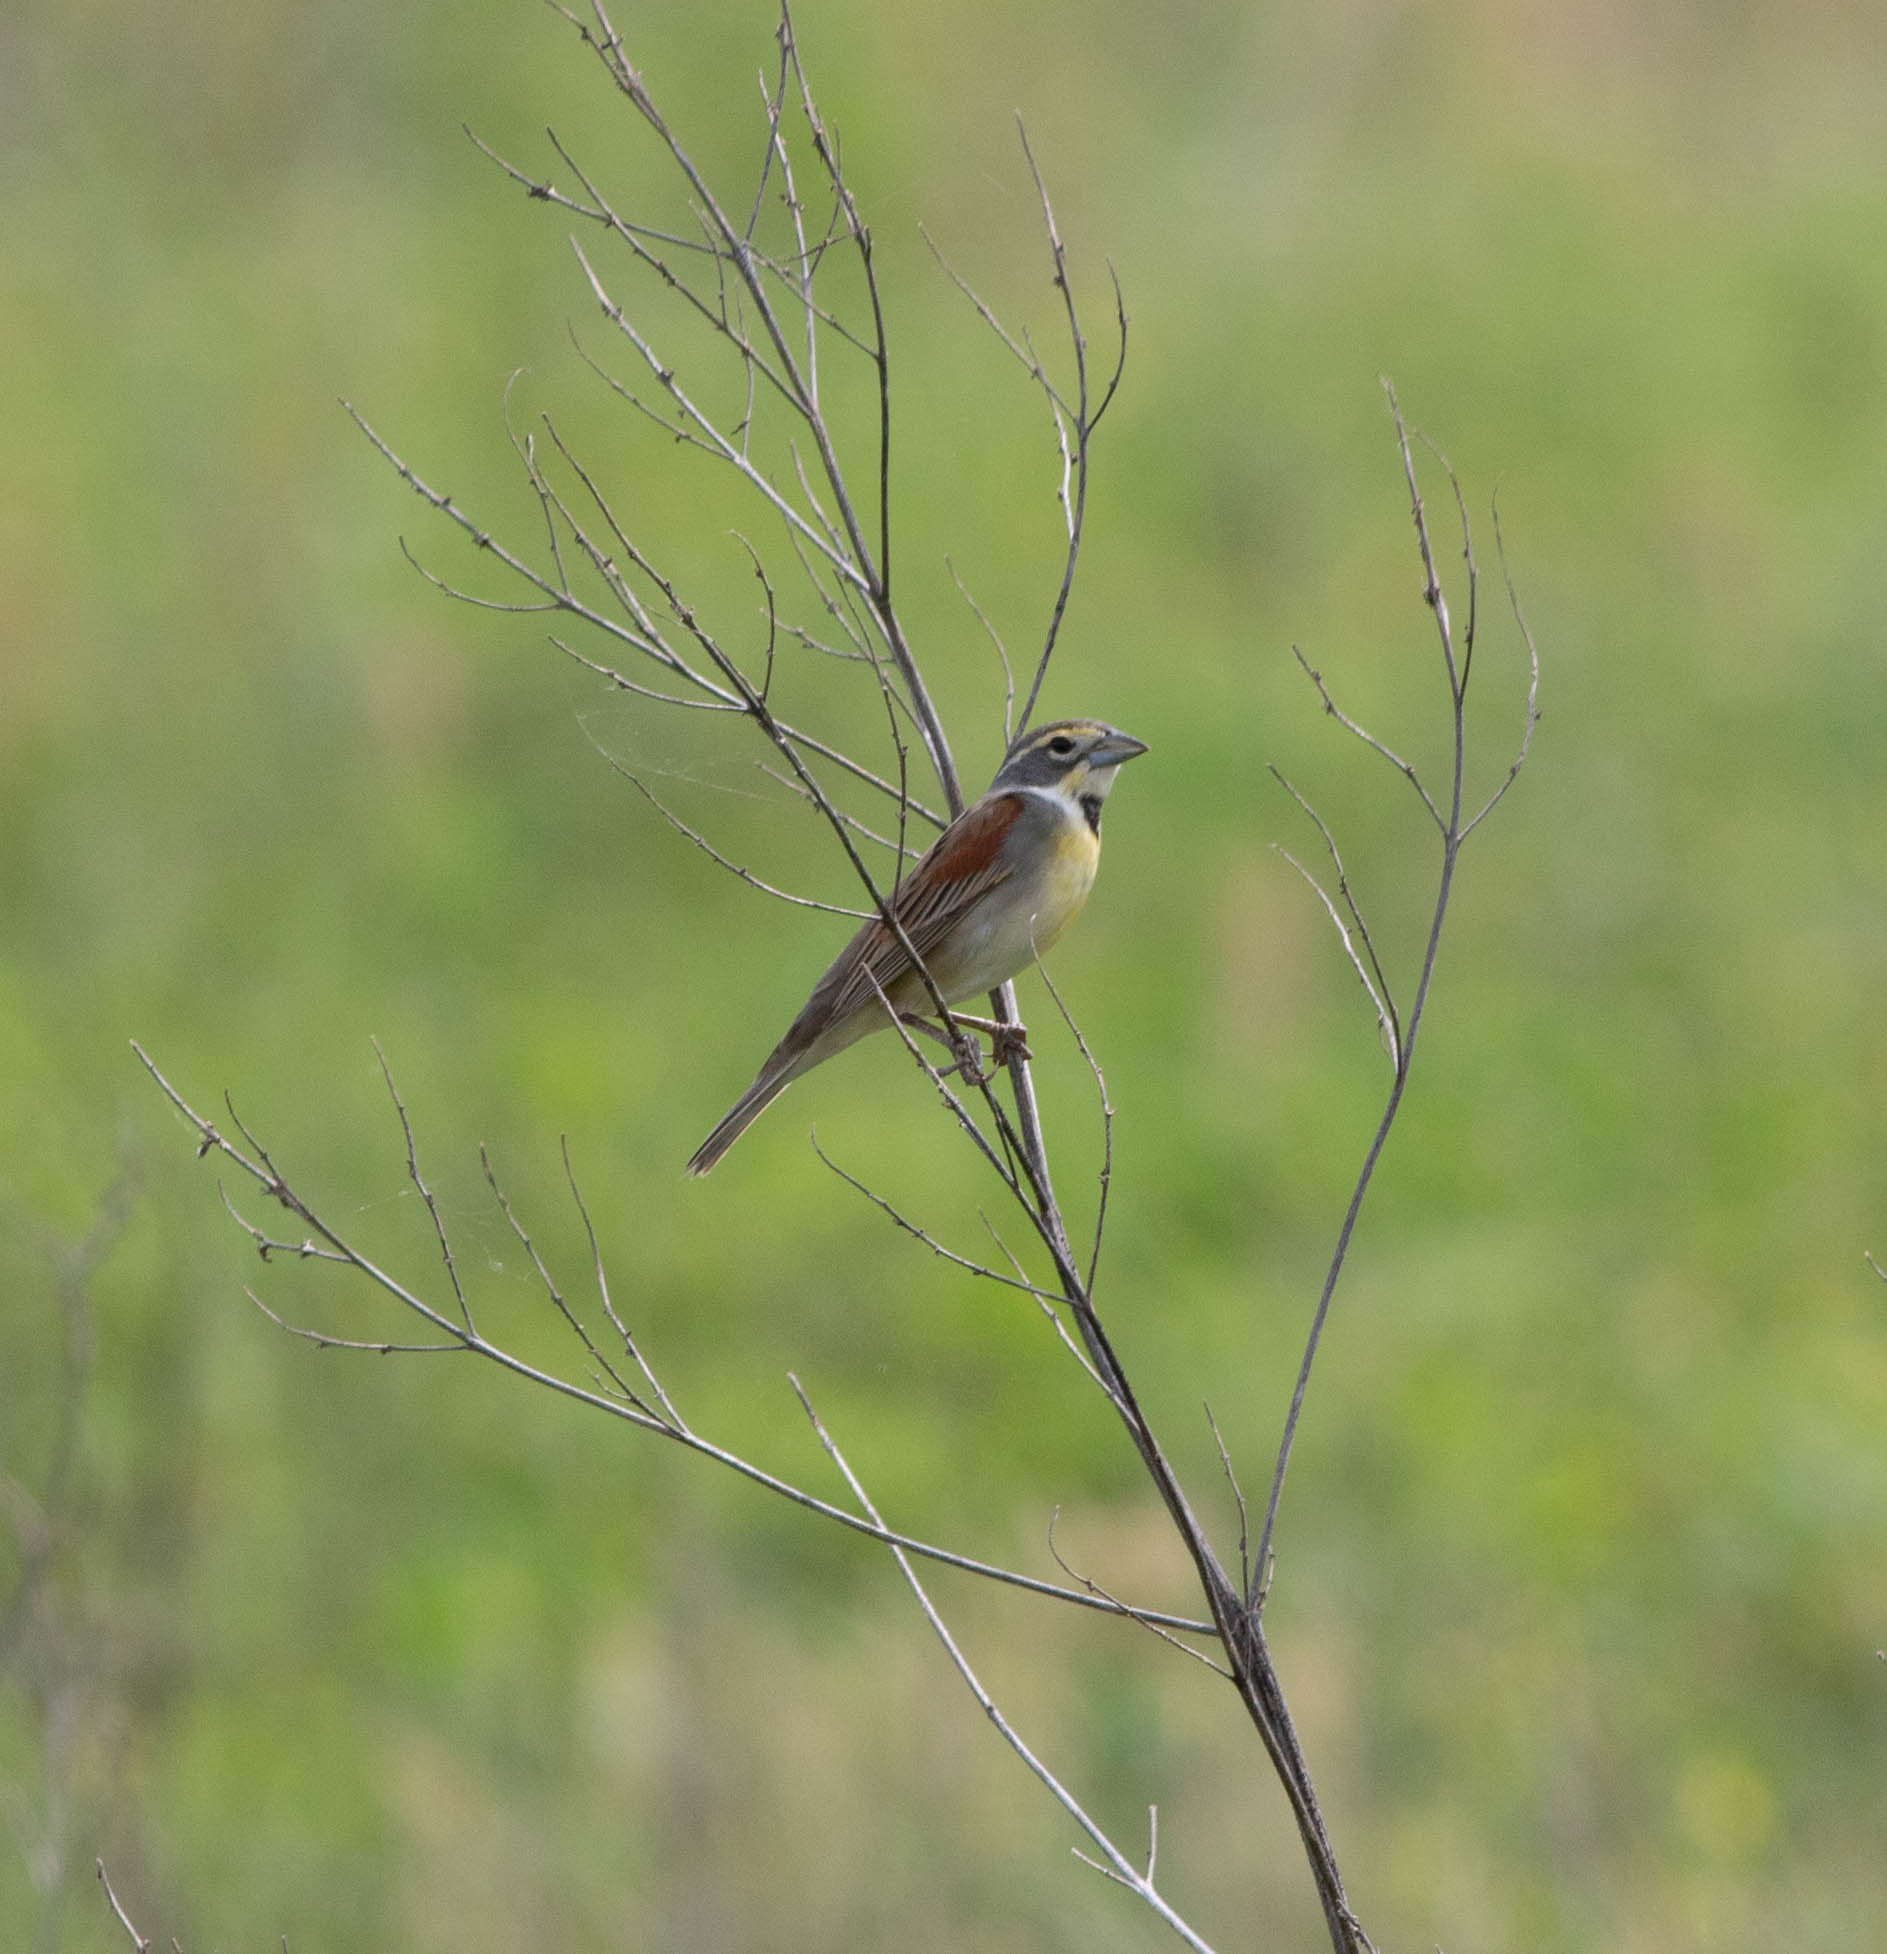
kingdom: Animalia
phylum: Chordata
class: Aves
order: Passeriformes
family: Cardinalidae
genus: Spiza
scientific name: Spiza americana
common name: Dickcissel
